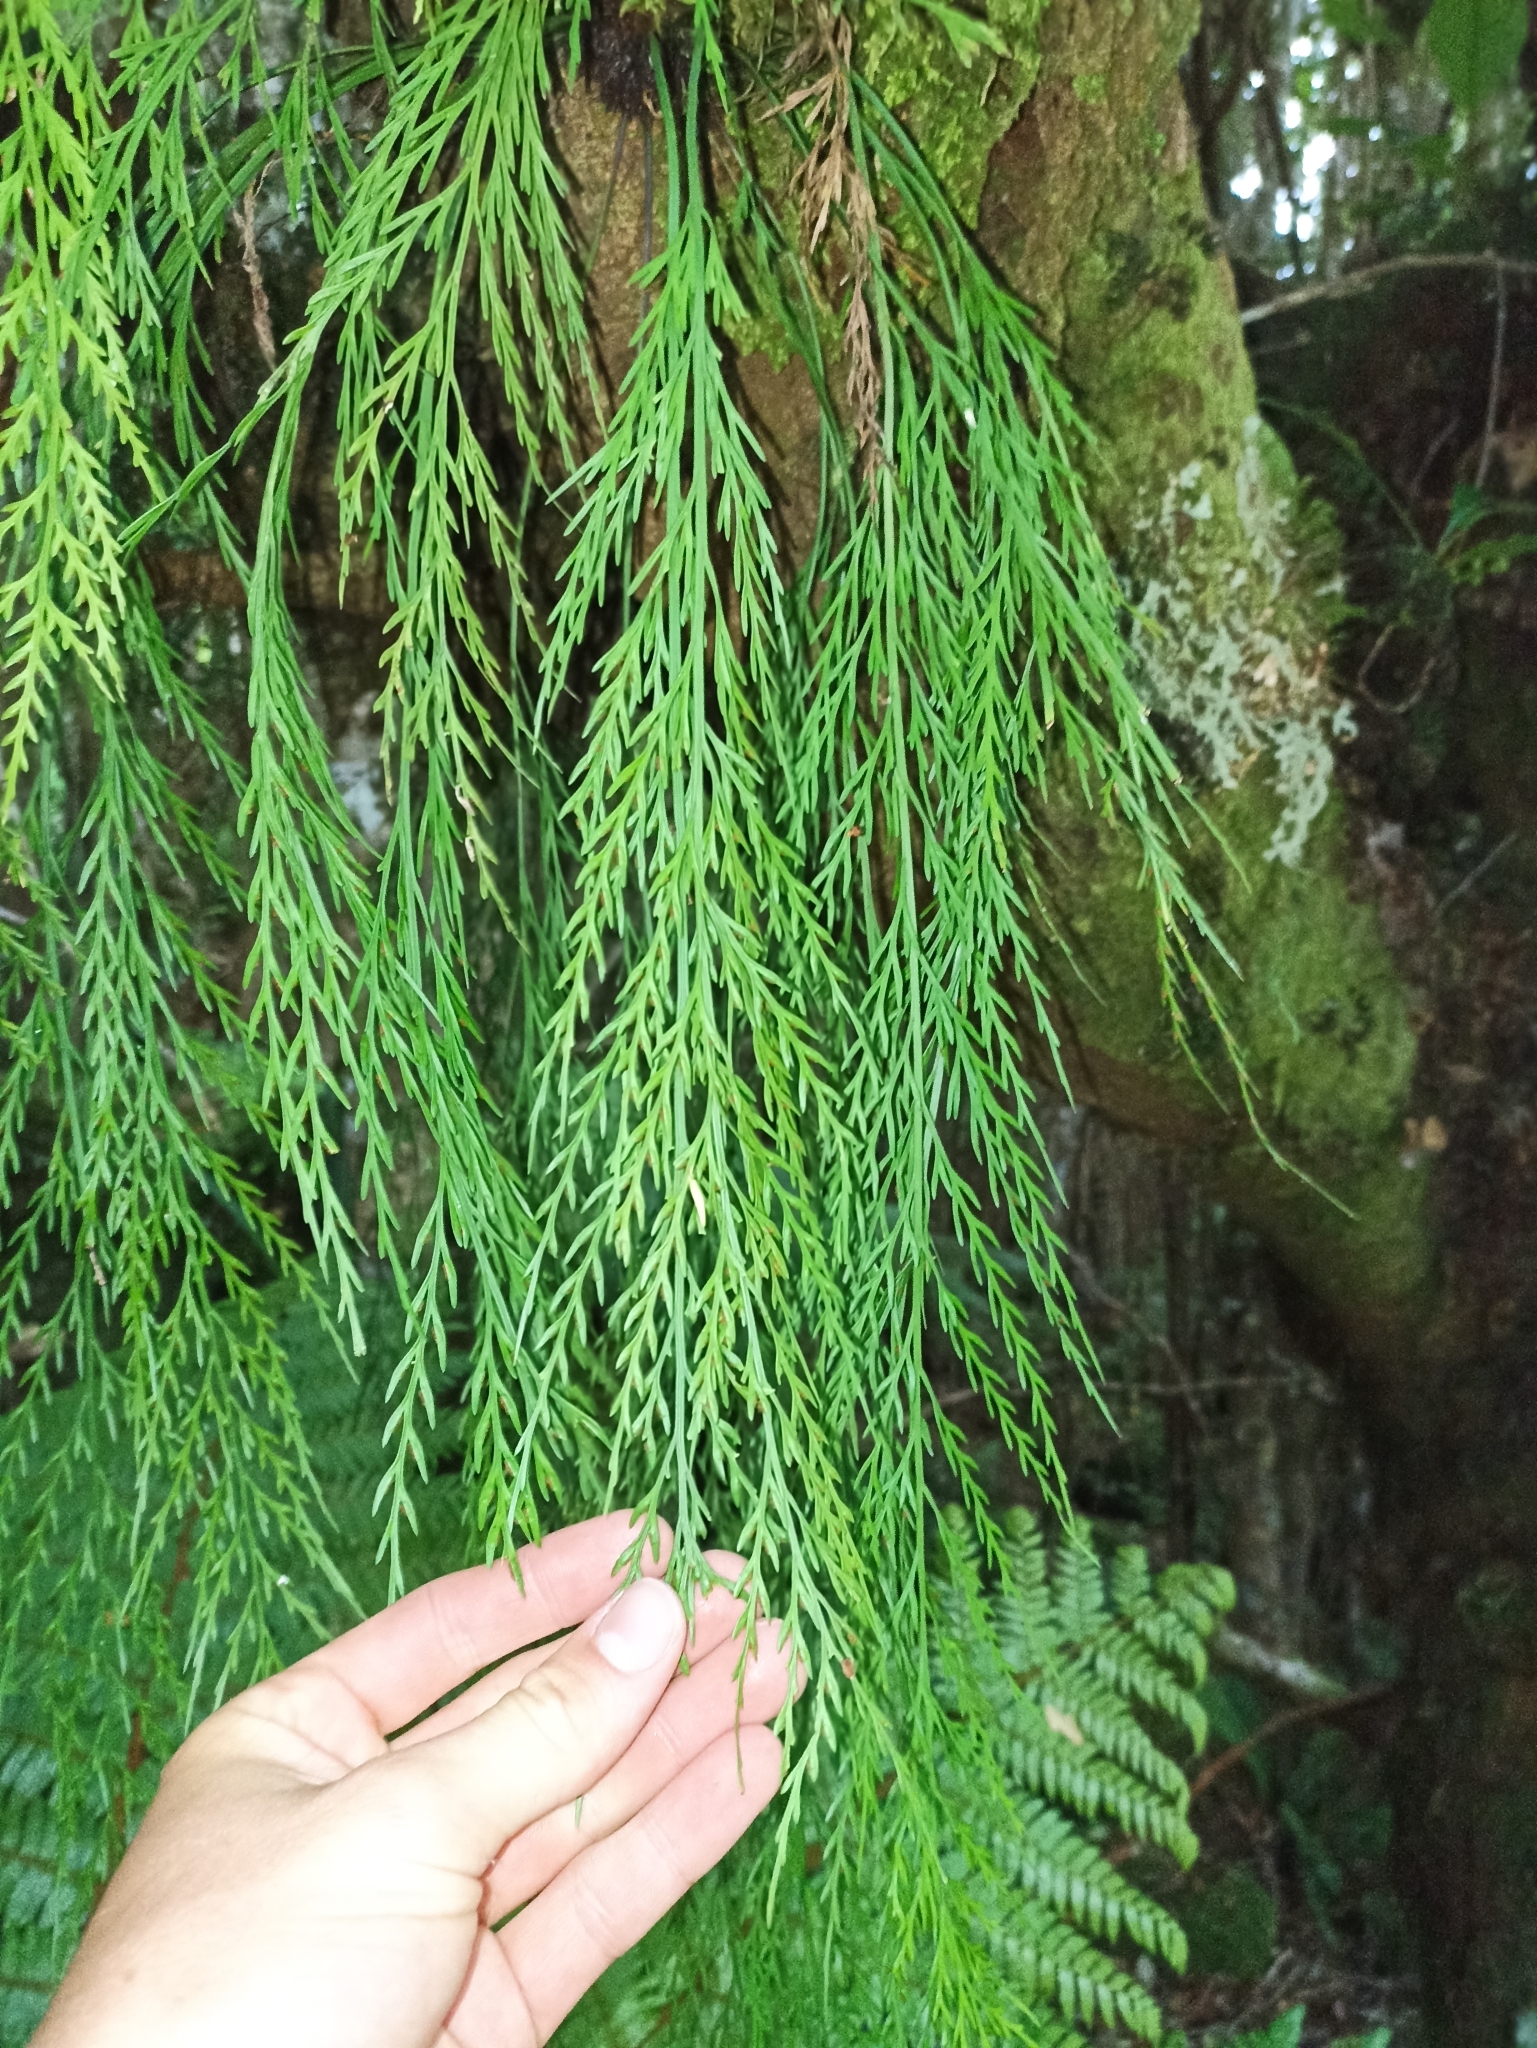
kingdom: Plantae
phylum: Tracheophyta
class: Polypodiopsida
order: Polypodiales
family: Aspleniaceae
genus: Asplenium
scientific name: Asplenium flaccidum
